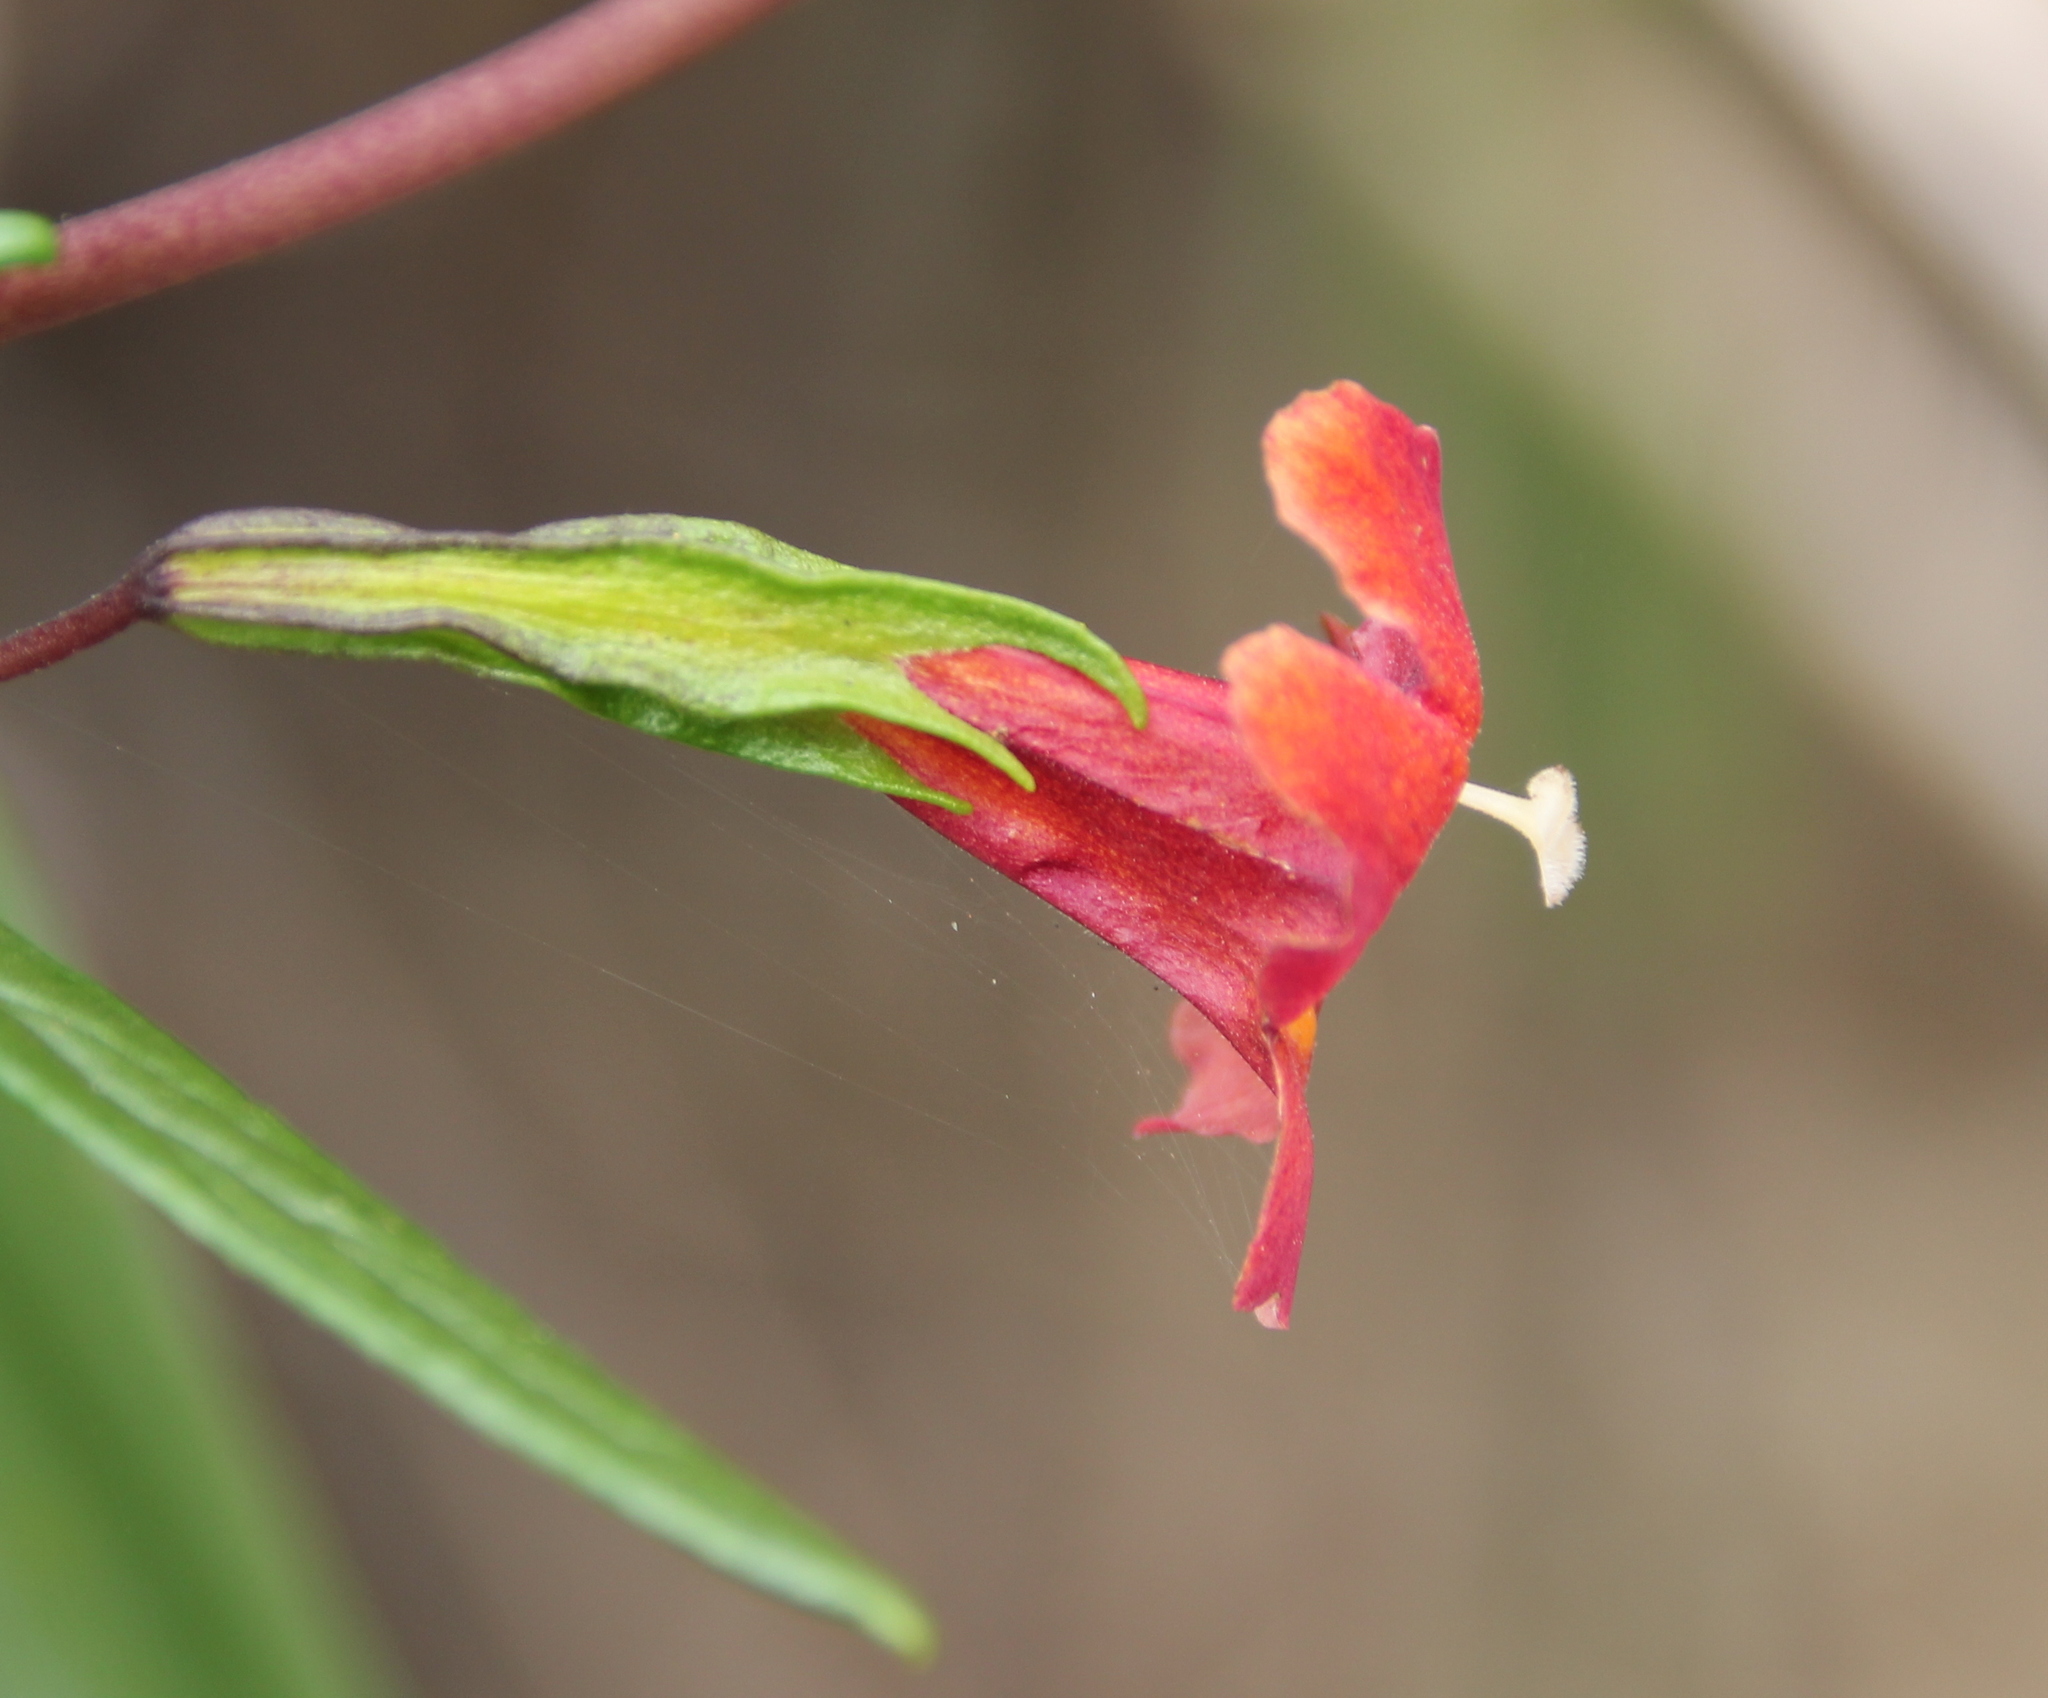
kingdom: Plantae
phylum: Tracheophyta
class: Magnoliopsida
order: Lamiales
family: Phrymaceae
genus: Diplacus
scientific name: Diplacus puniceus
